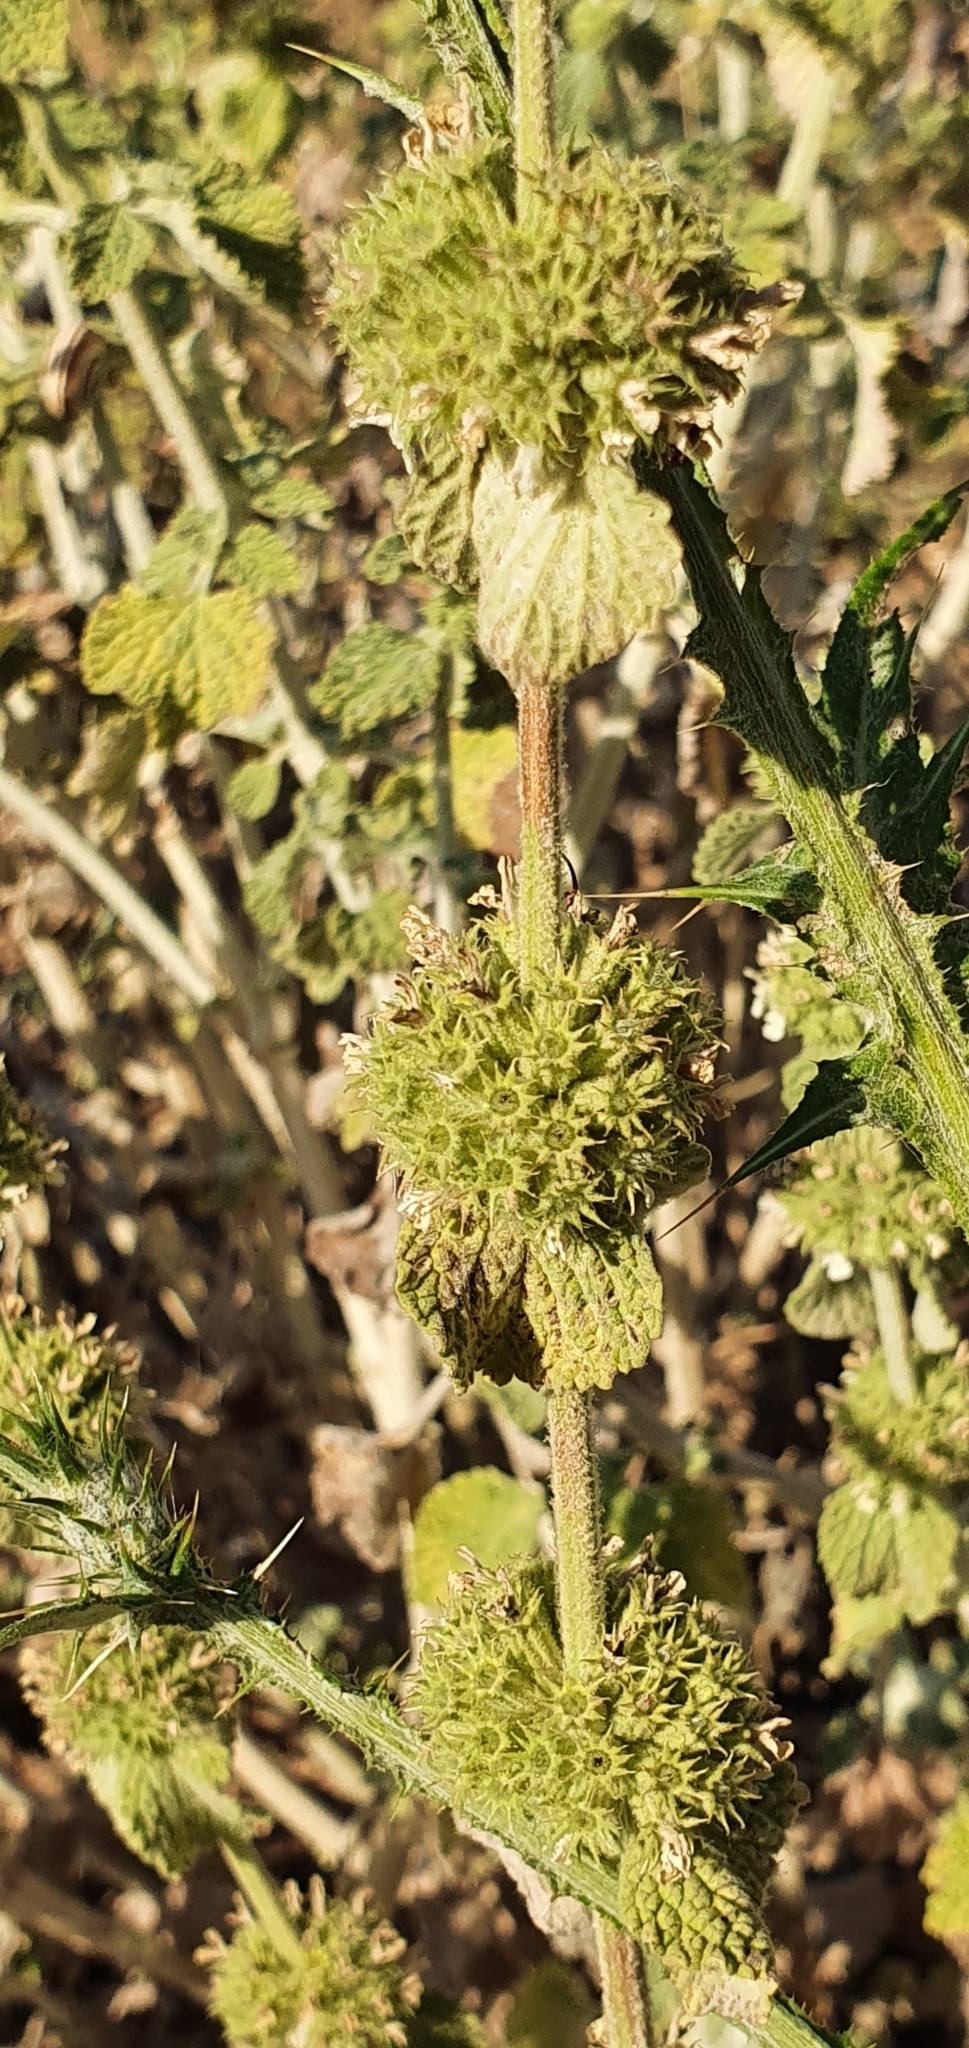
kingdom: Plantae
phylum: Tracheophyta
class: Magnoliopsida
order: Lamiales
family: Lamiaceae
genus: Marrubium
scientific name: Marrubium vulgare
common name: Horehound
